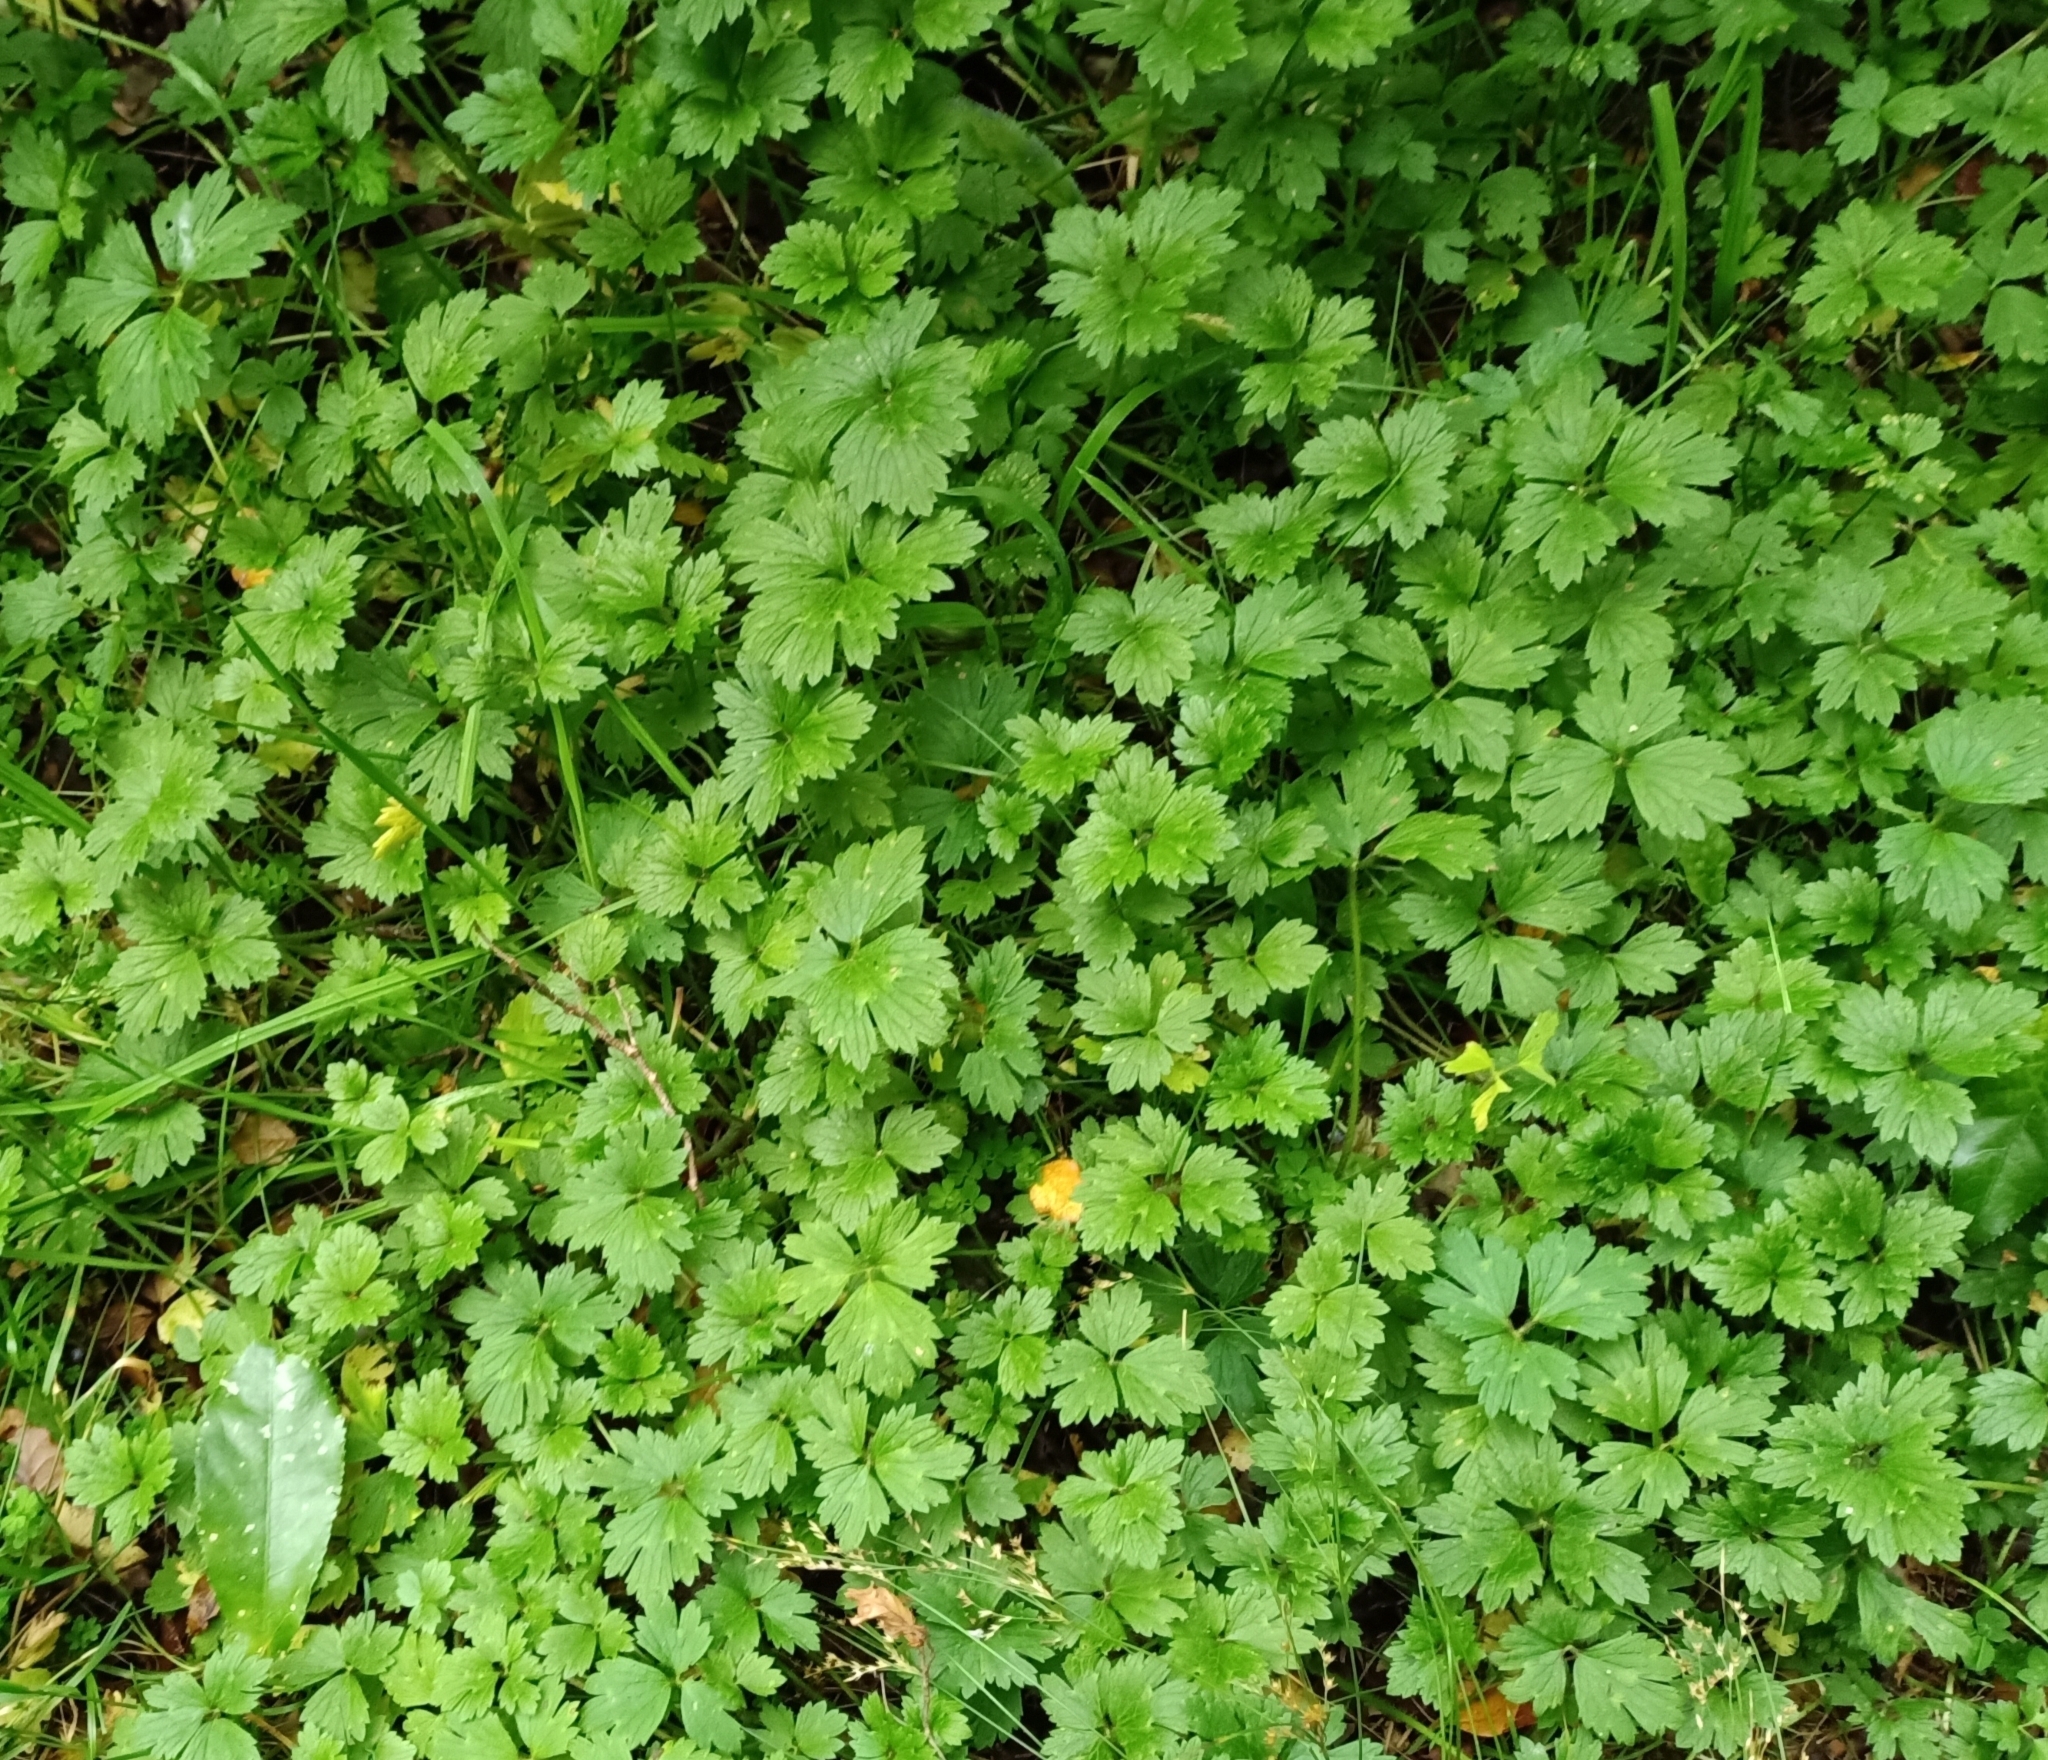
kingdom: Plantae
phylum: Tracheophyta
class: Magnoliopsida
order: Ranunculales
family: Ranunculaceae
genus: Ranunculus
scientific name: Ranunculus repens
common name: Creeping buttercup
